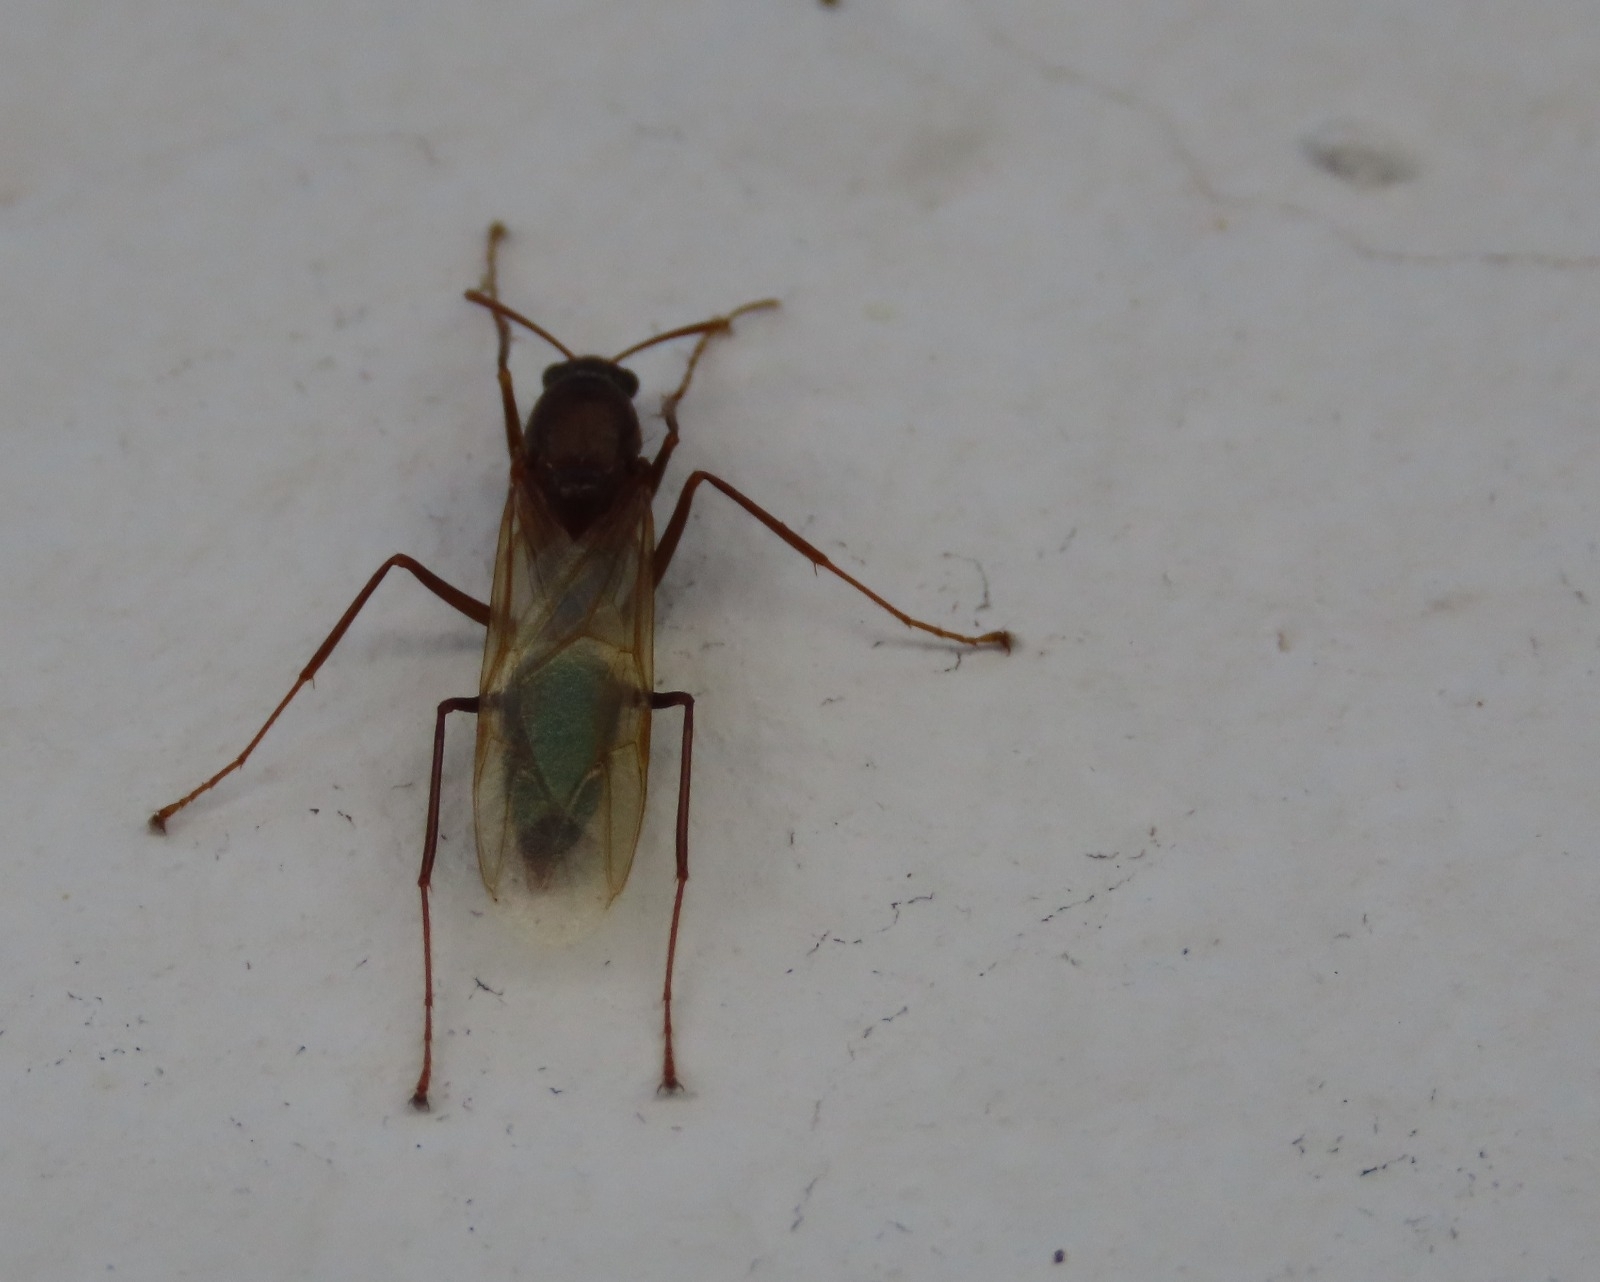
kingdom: Animalia
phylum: Arthropoda
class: Insecta
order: Hymenoptera
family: Formicidae
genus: Camponotus
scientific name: Camponotus
